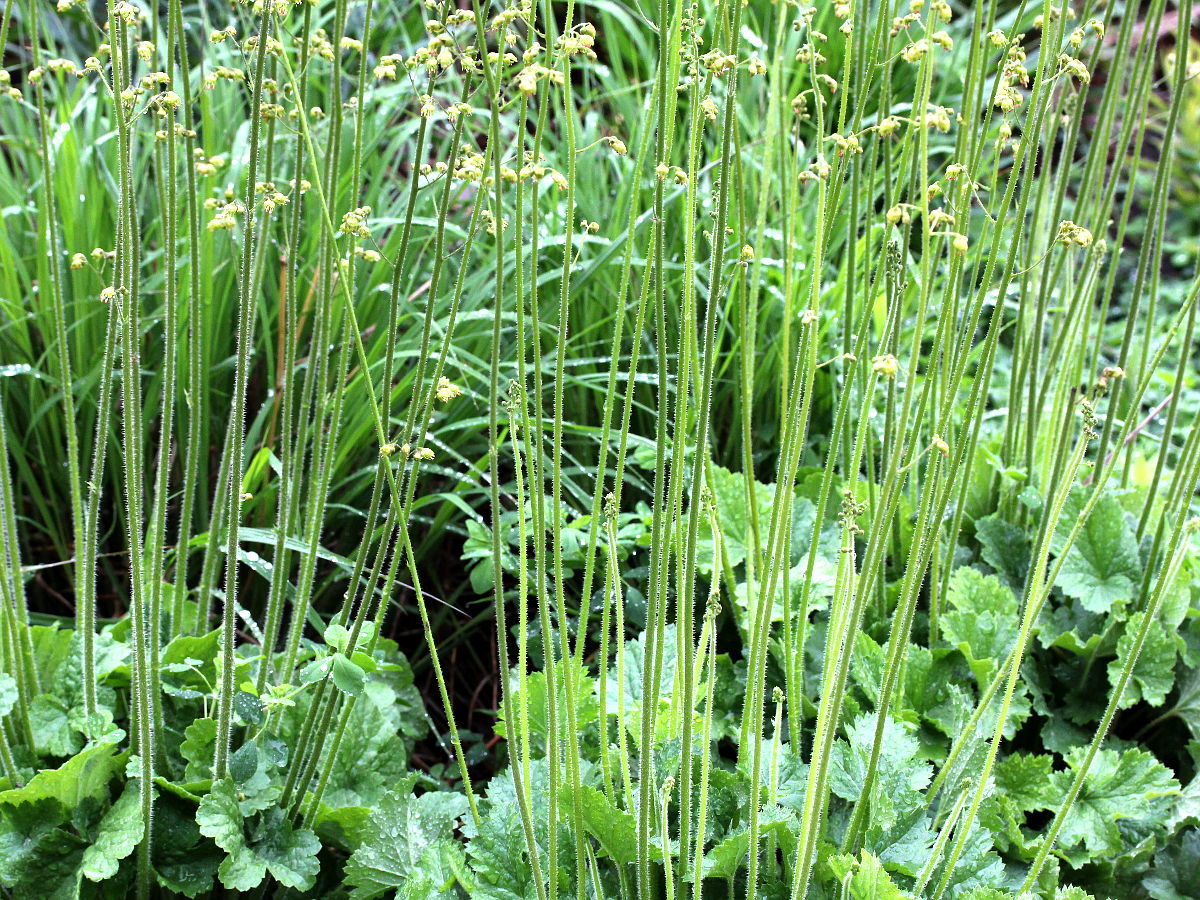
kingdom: Plantae
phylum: Tracheophyta
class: Magnoliopsida
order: Saxifragales
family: Saxifragaceae
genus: Heuchera
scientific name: Heuchera richardsonii
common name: Richardson's alumroot
